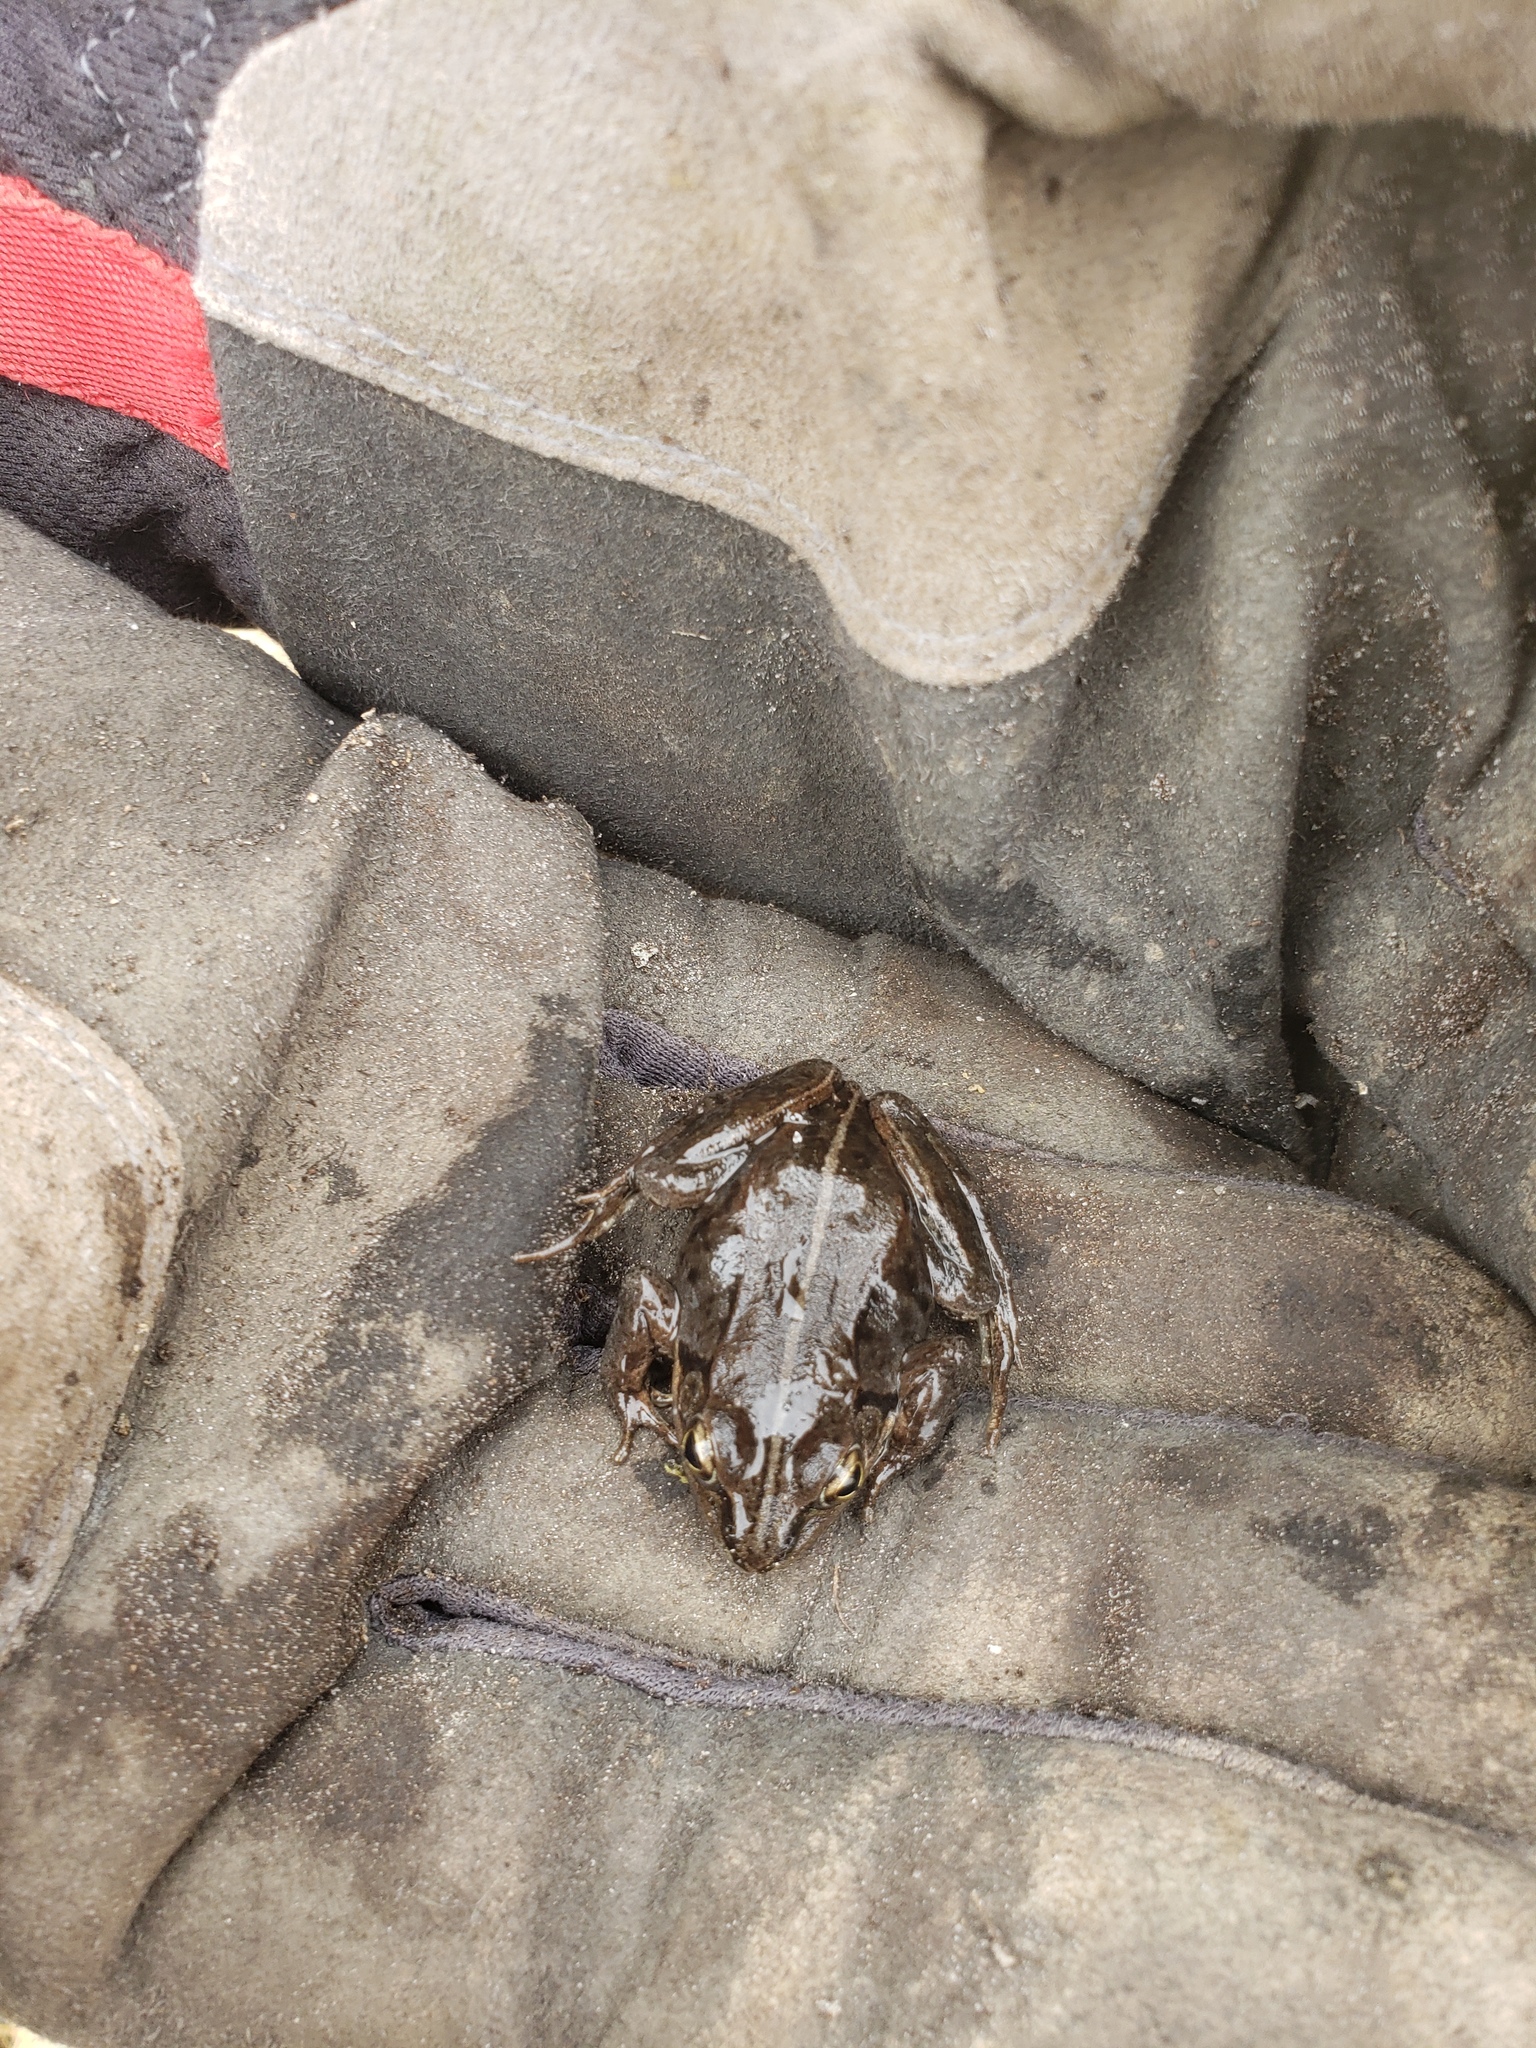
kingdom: Animalia
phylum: Chordata
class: Amphibia
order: Anura
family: Ranidae
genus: Lithobates
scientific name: Lithobates sylvaticus
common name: Wood frog
